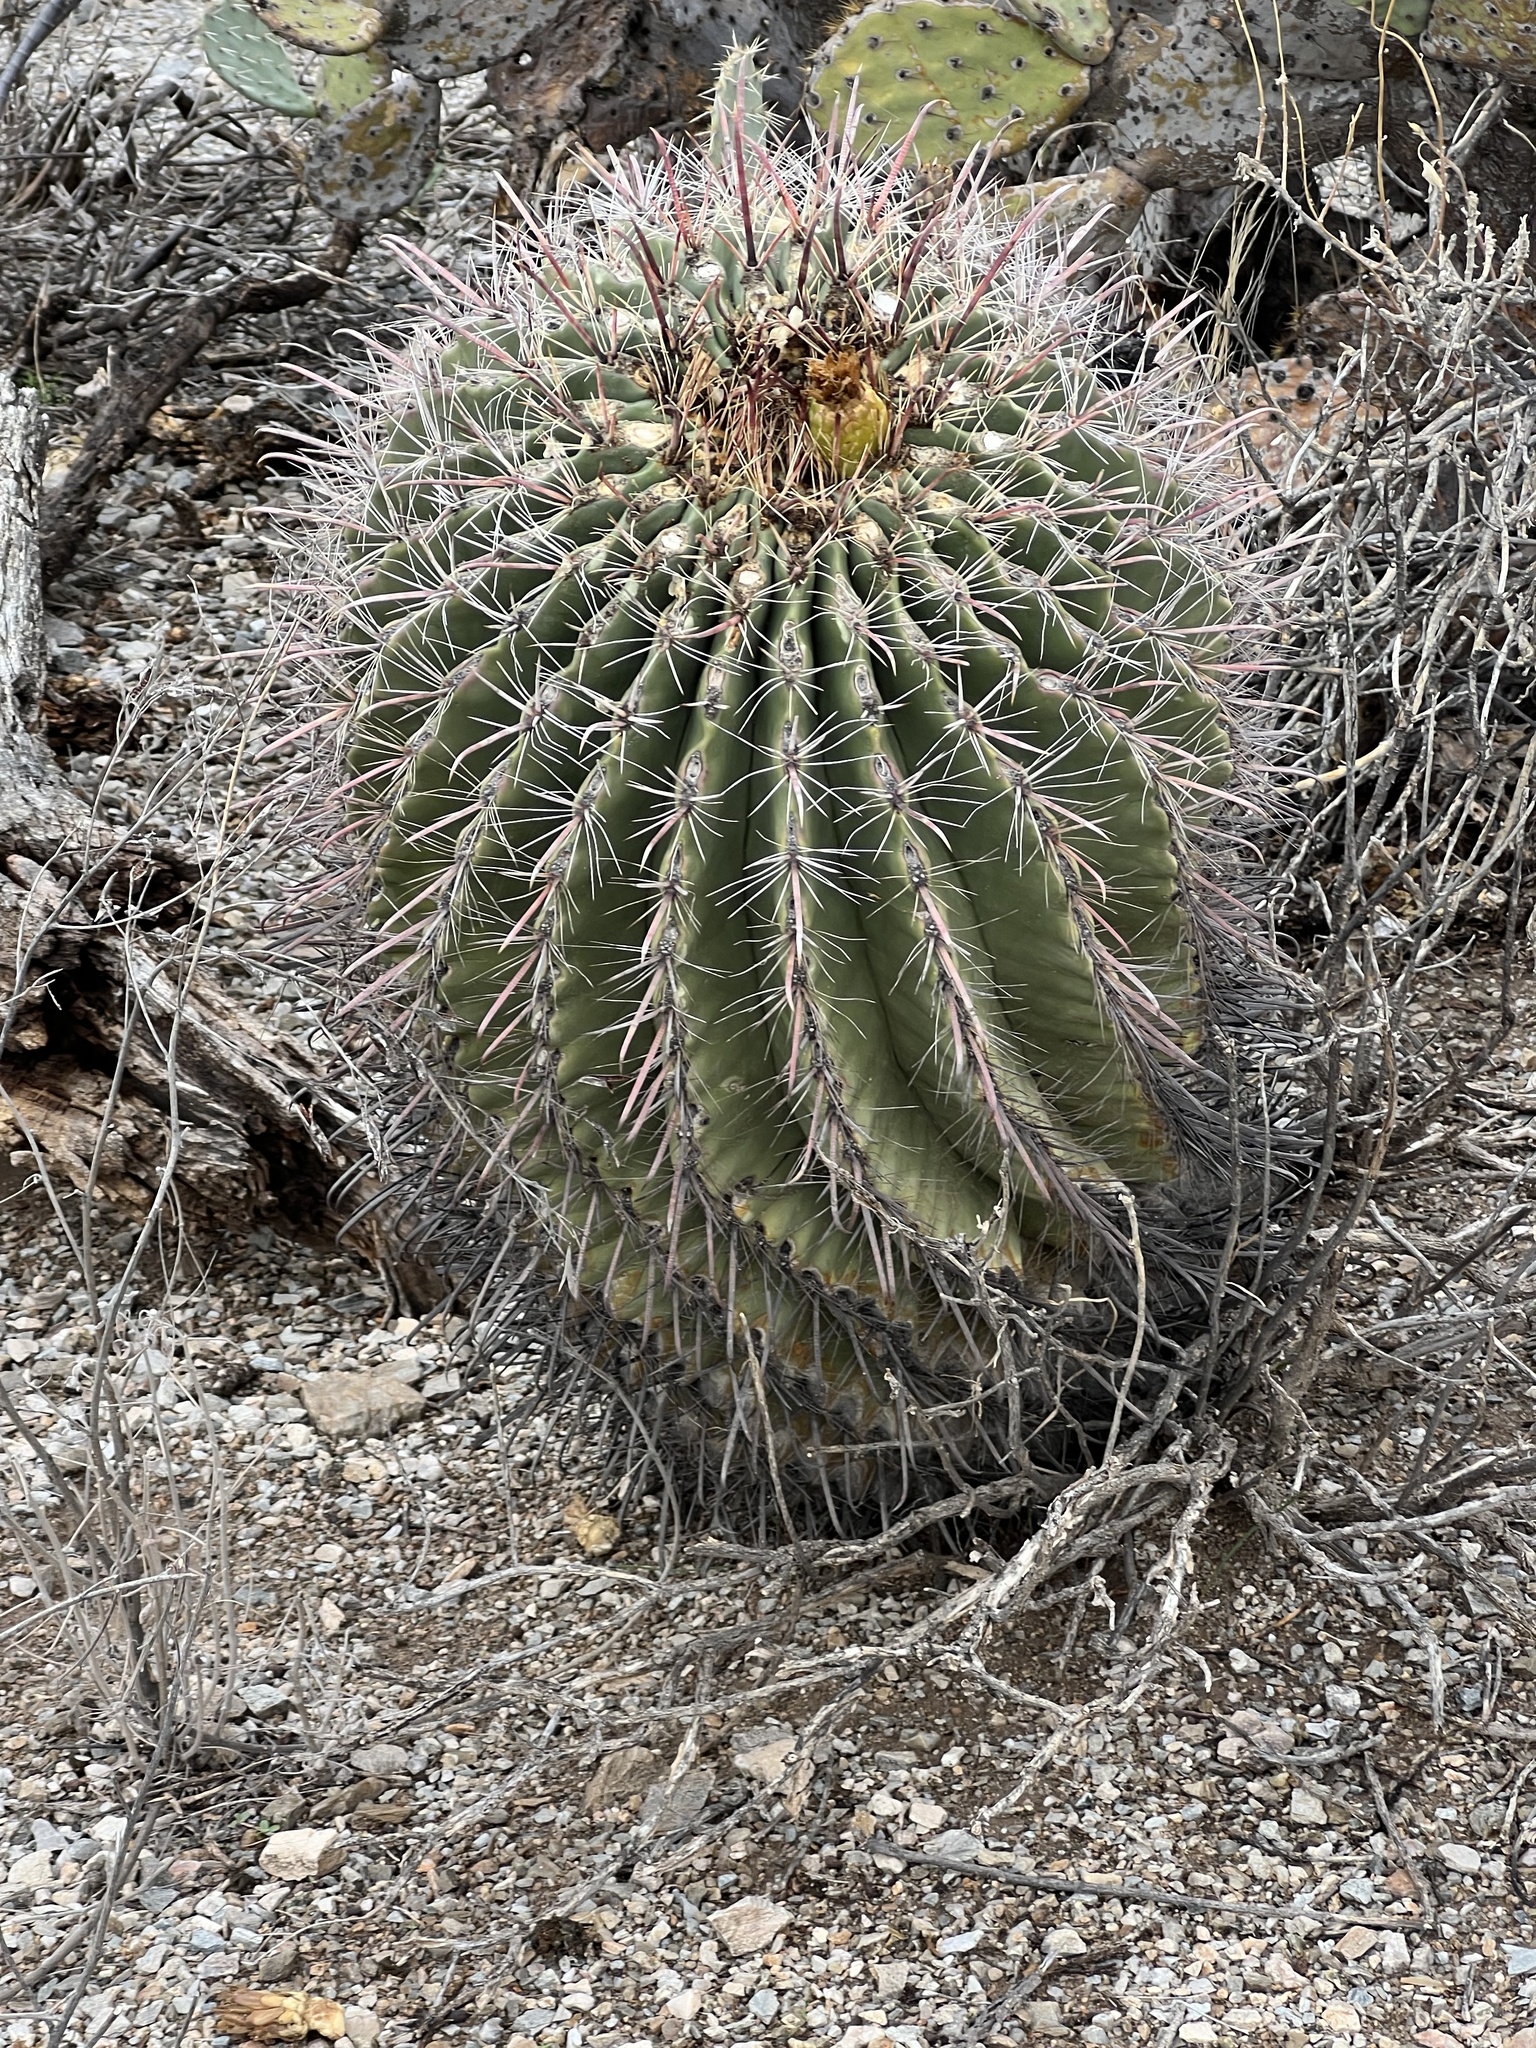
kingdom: Plantae
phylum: Tracheophyta
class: Magnoliopsida
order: Caryophyllales
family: Cactaceae
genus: Ferocactus
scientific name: Ferocactus wislizeni
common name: Candy barrel cactus
